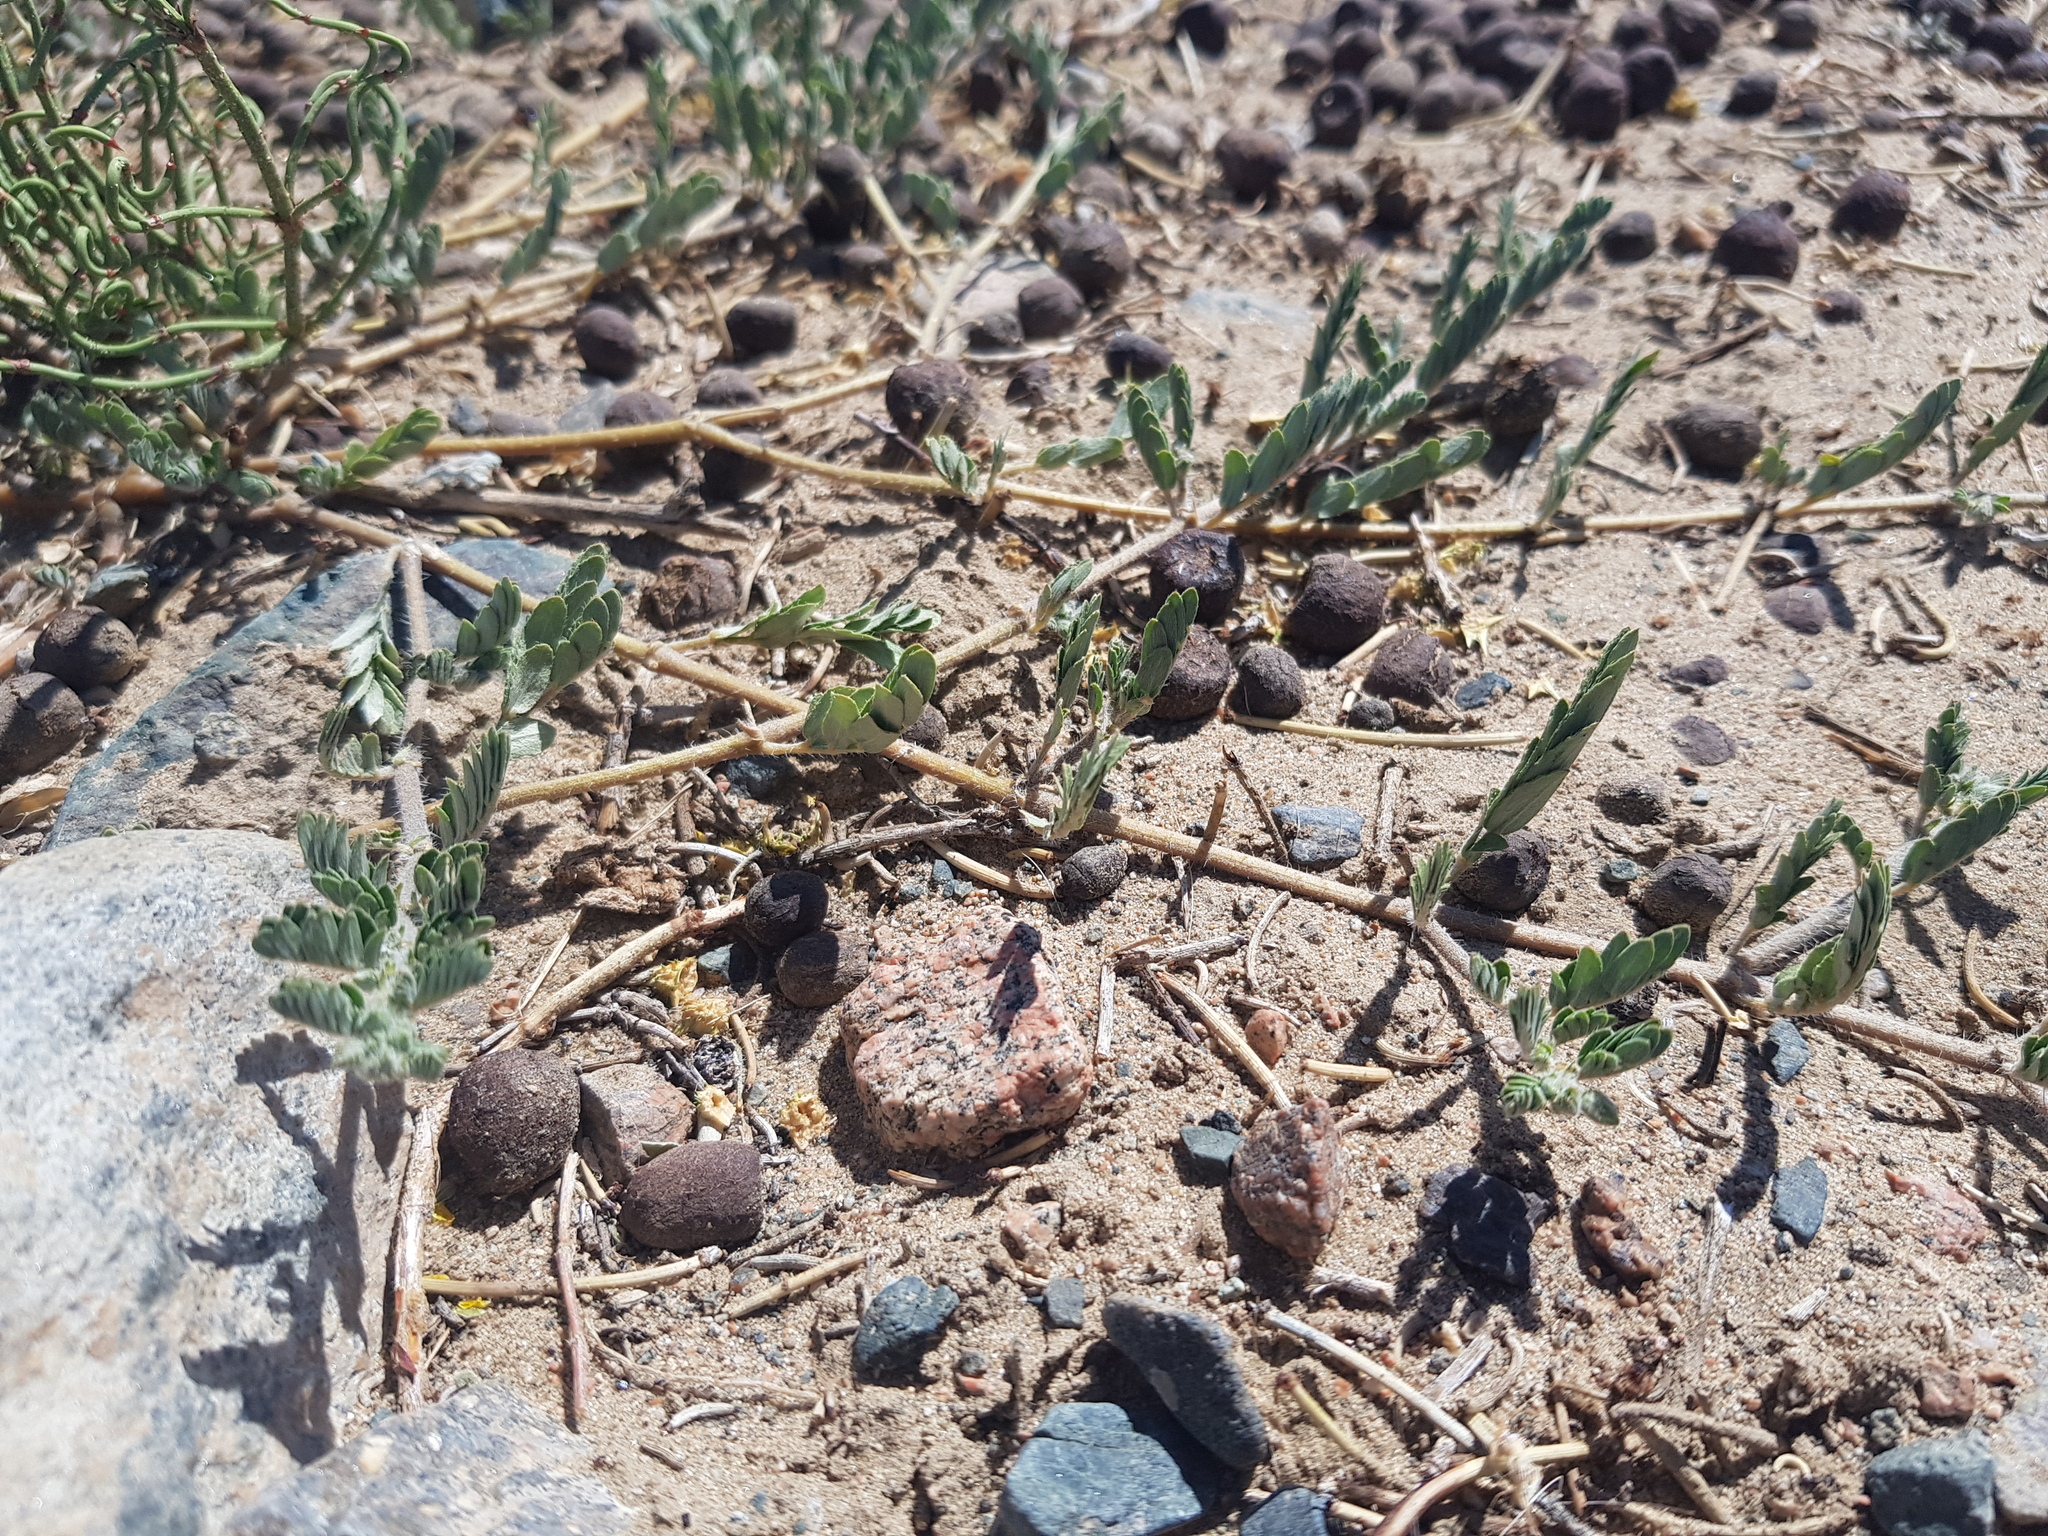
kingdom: Plantae
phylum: Tracheophyta
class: Magnoliopsida
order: Zygophyllales
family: Zygophyllaceae
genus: Tribulus
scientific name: Tribulus terrestris
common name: Puncturevine
